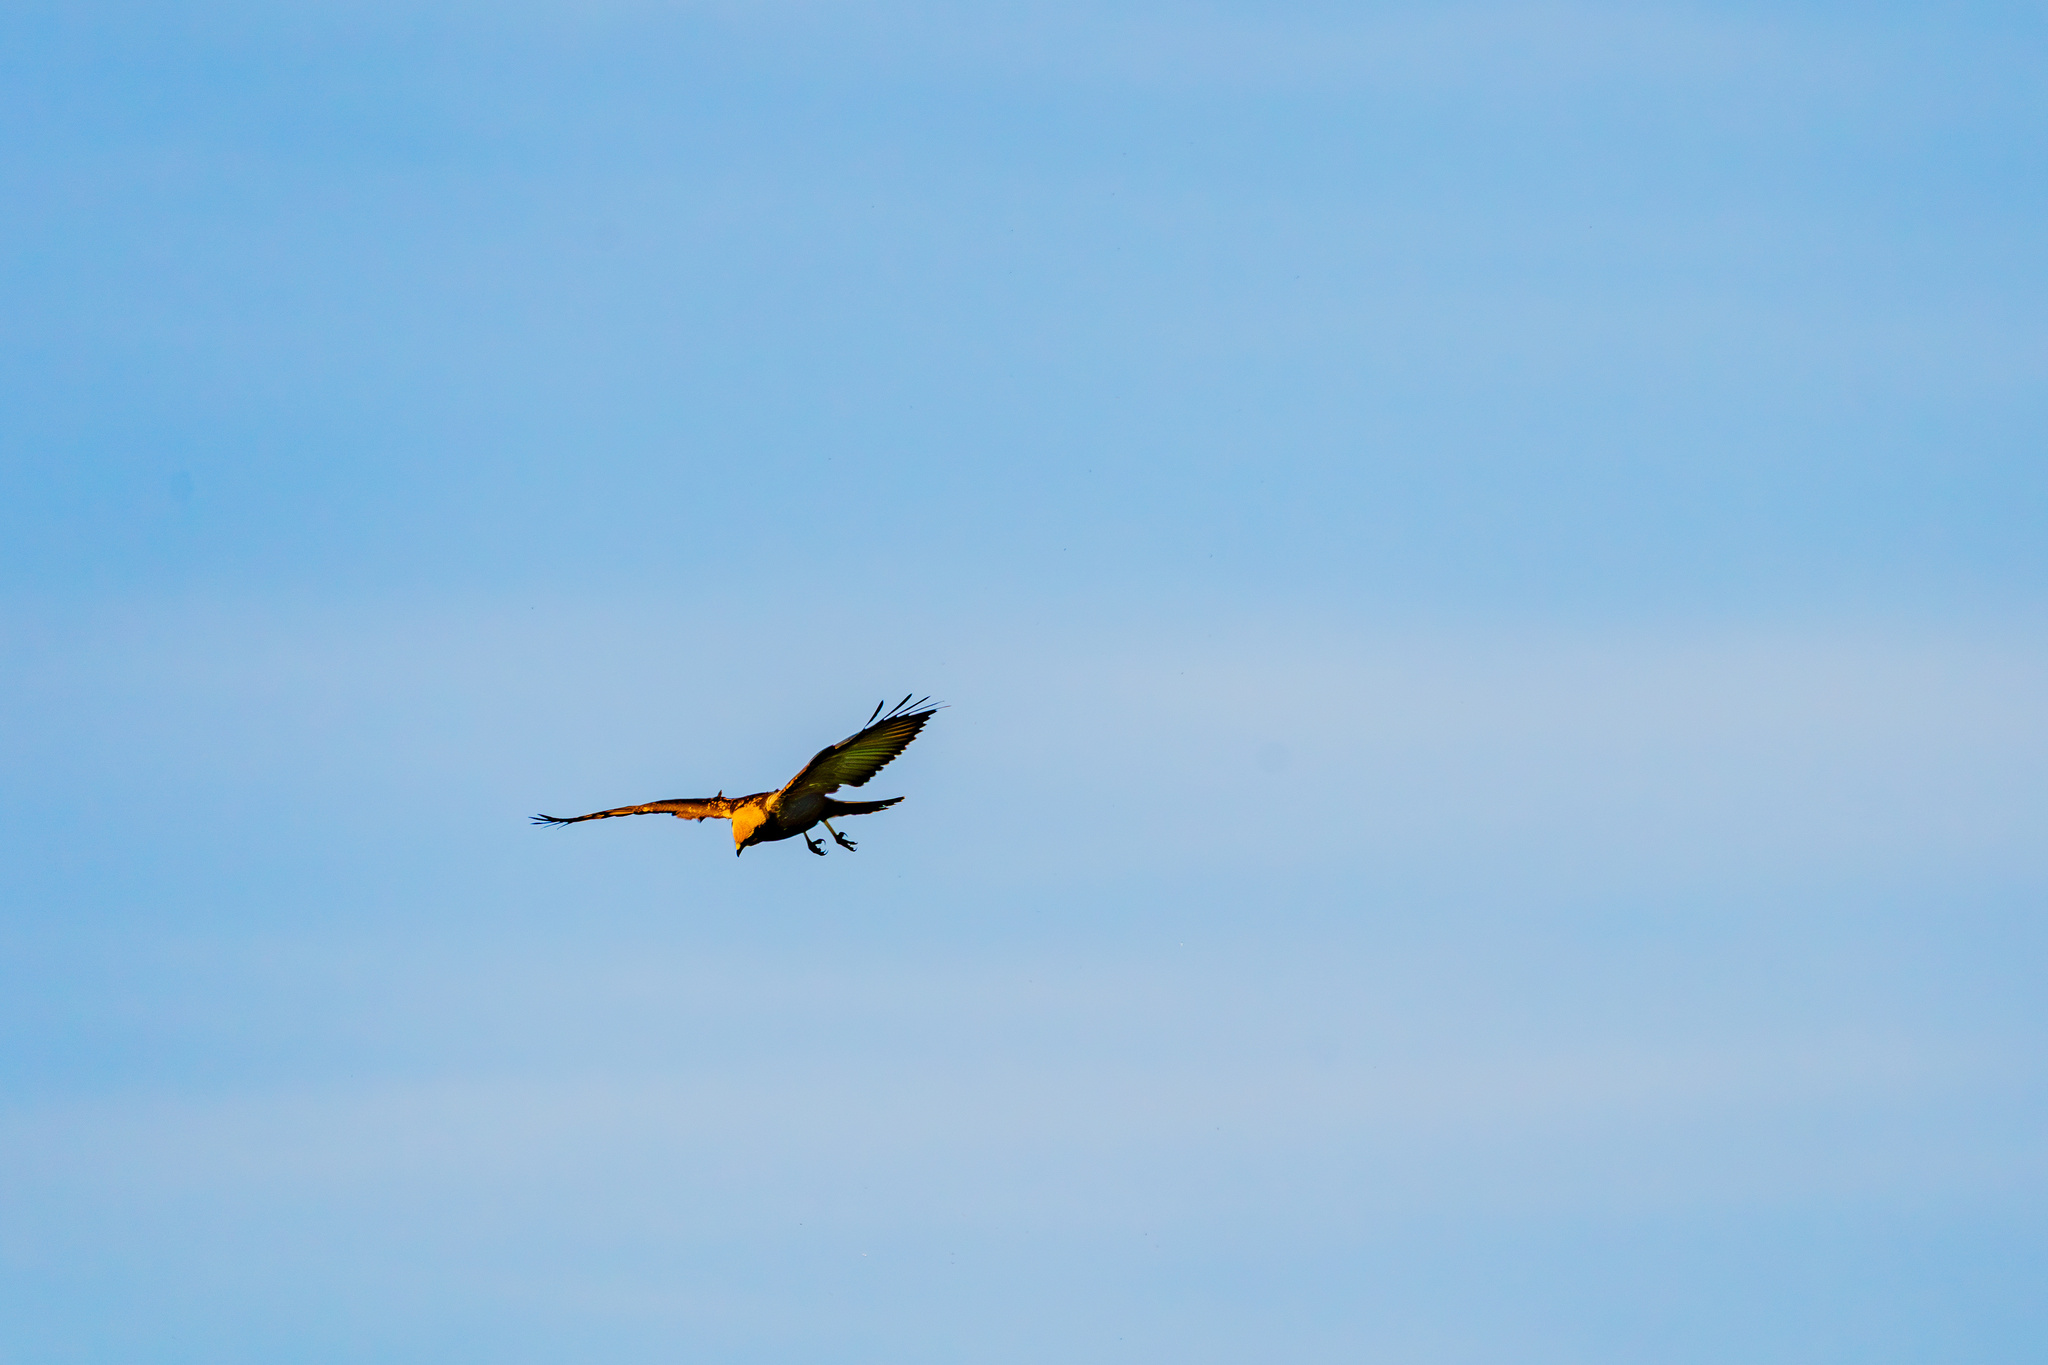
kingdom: Animalia
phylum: Chordata
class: Aves
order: Accipitriformes
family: Accipitridae
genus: Circus
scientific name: Circus aeruginosus
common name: Western marsh harrier
